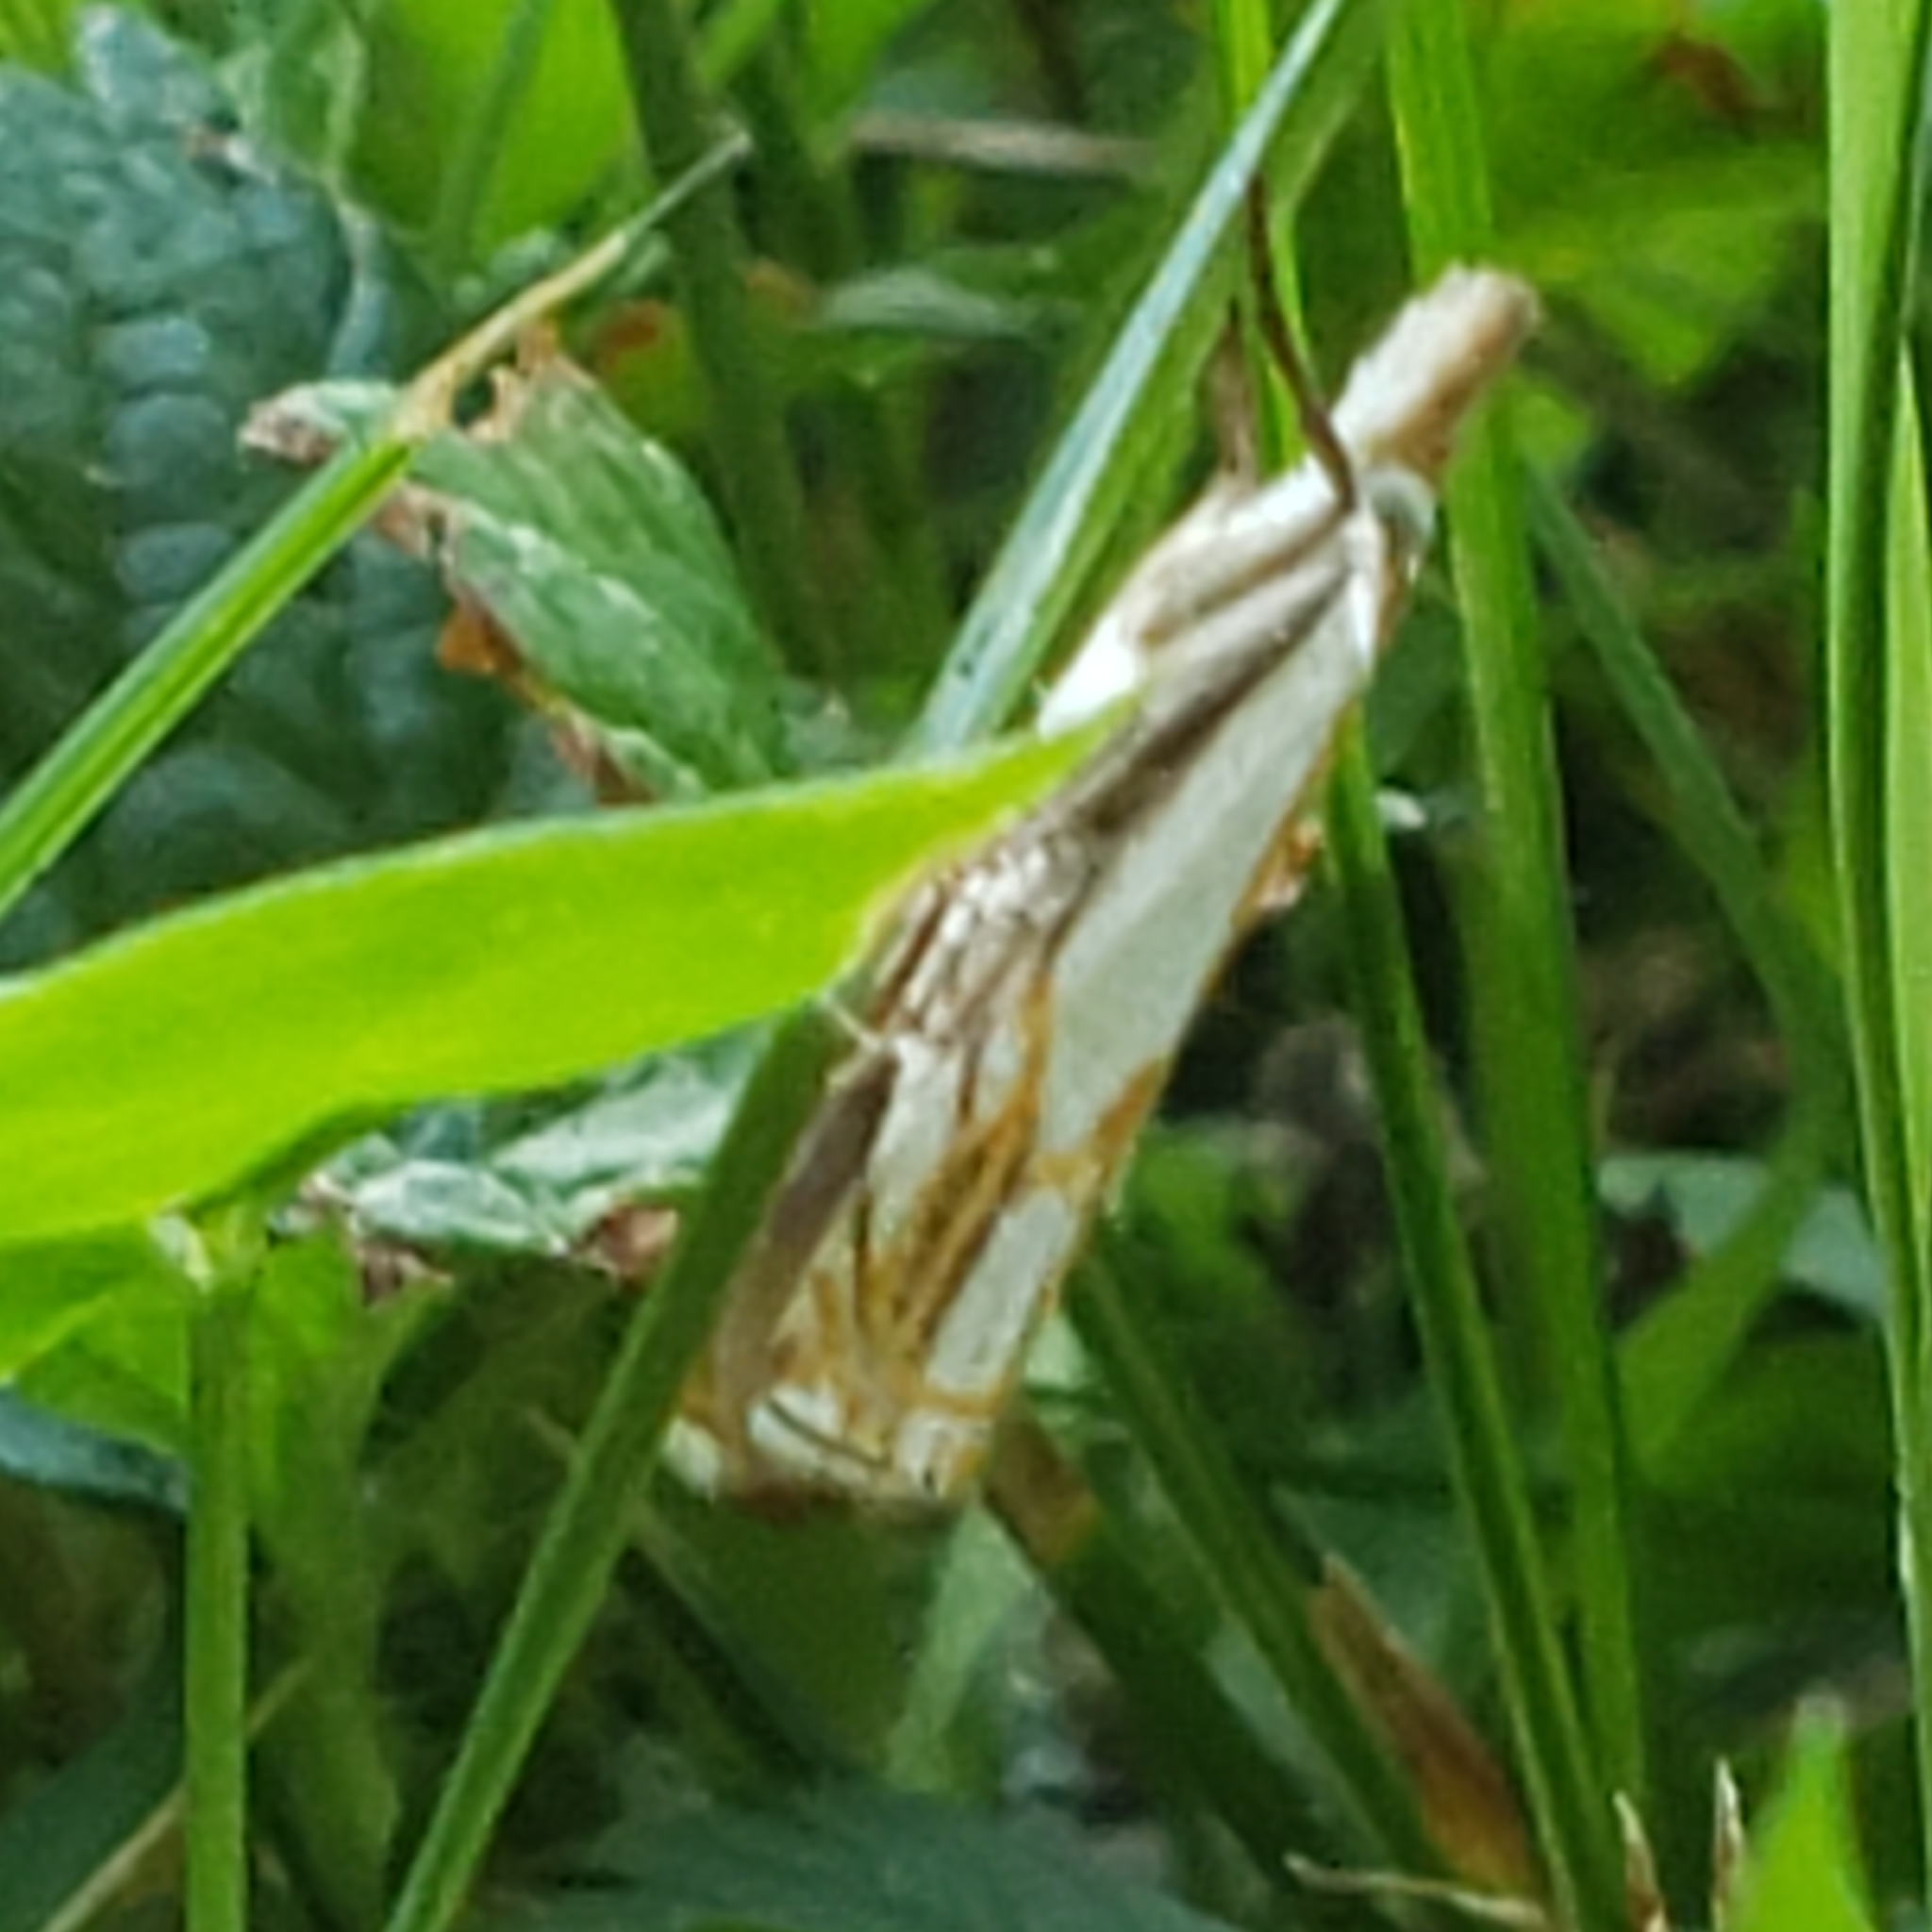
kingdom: Animalia
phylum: Arthropoda
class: Insecta
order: Lepidoptera
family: Crambidae
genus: Crambus
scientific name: Crambus agitatellus
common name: Double-banded grass-veneer
